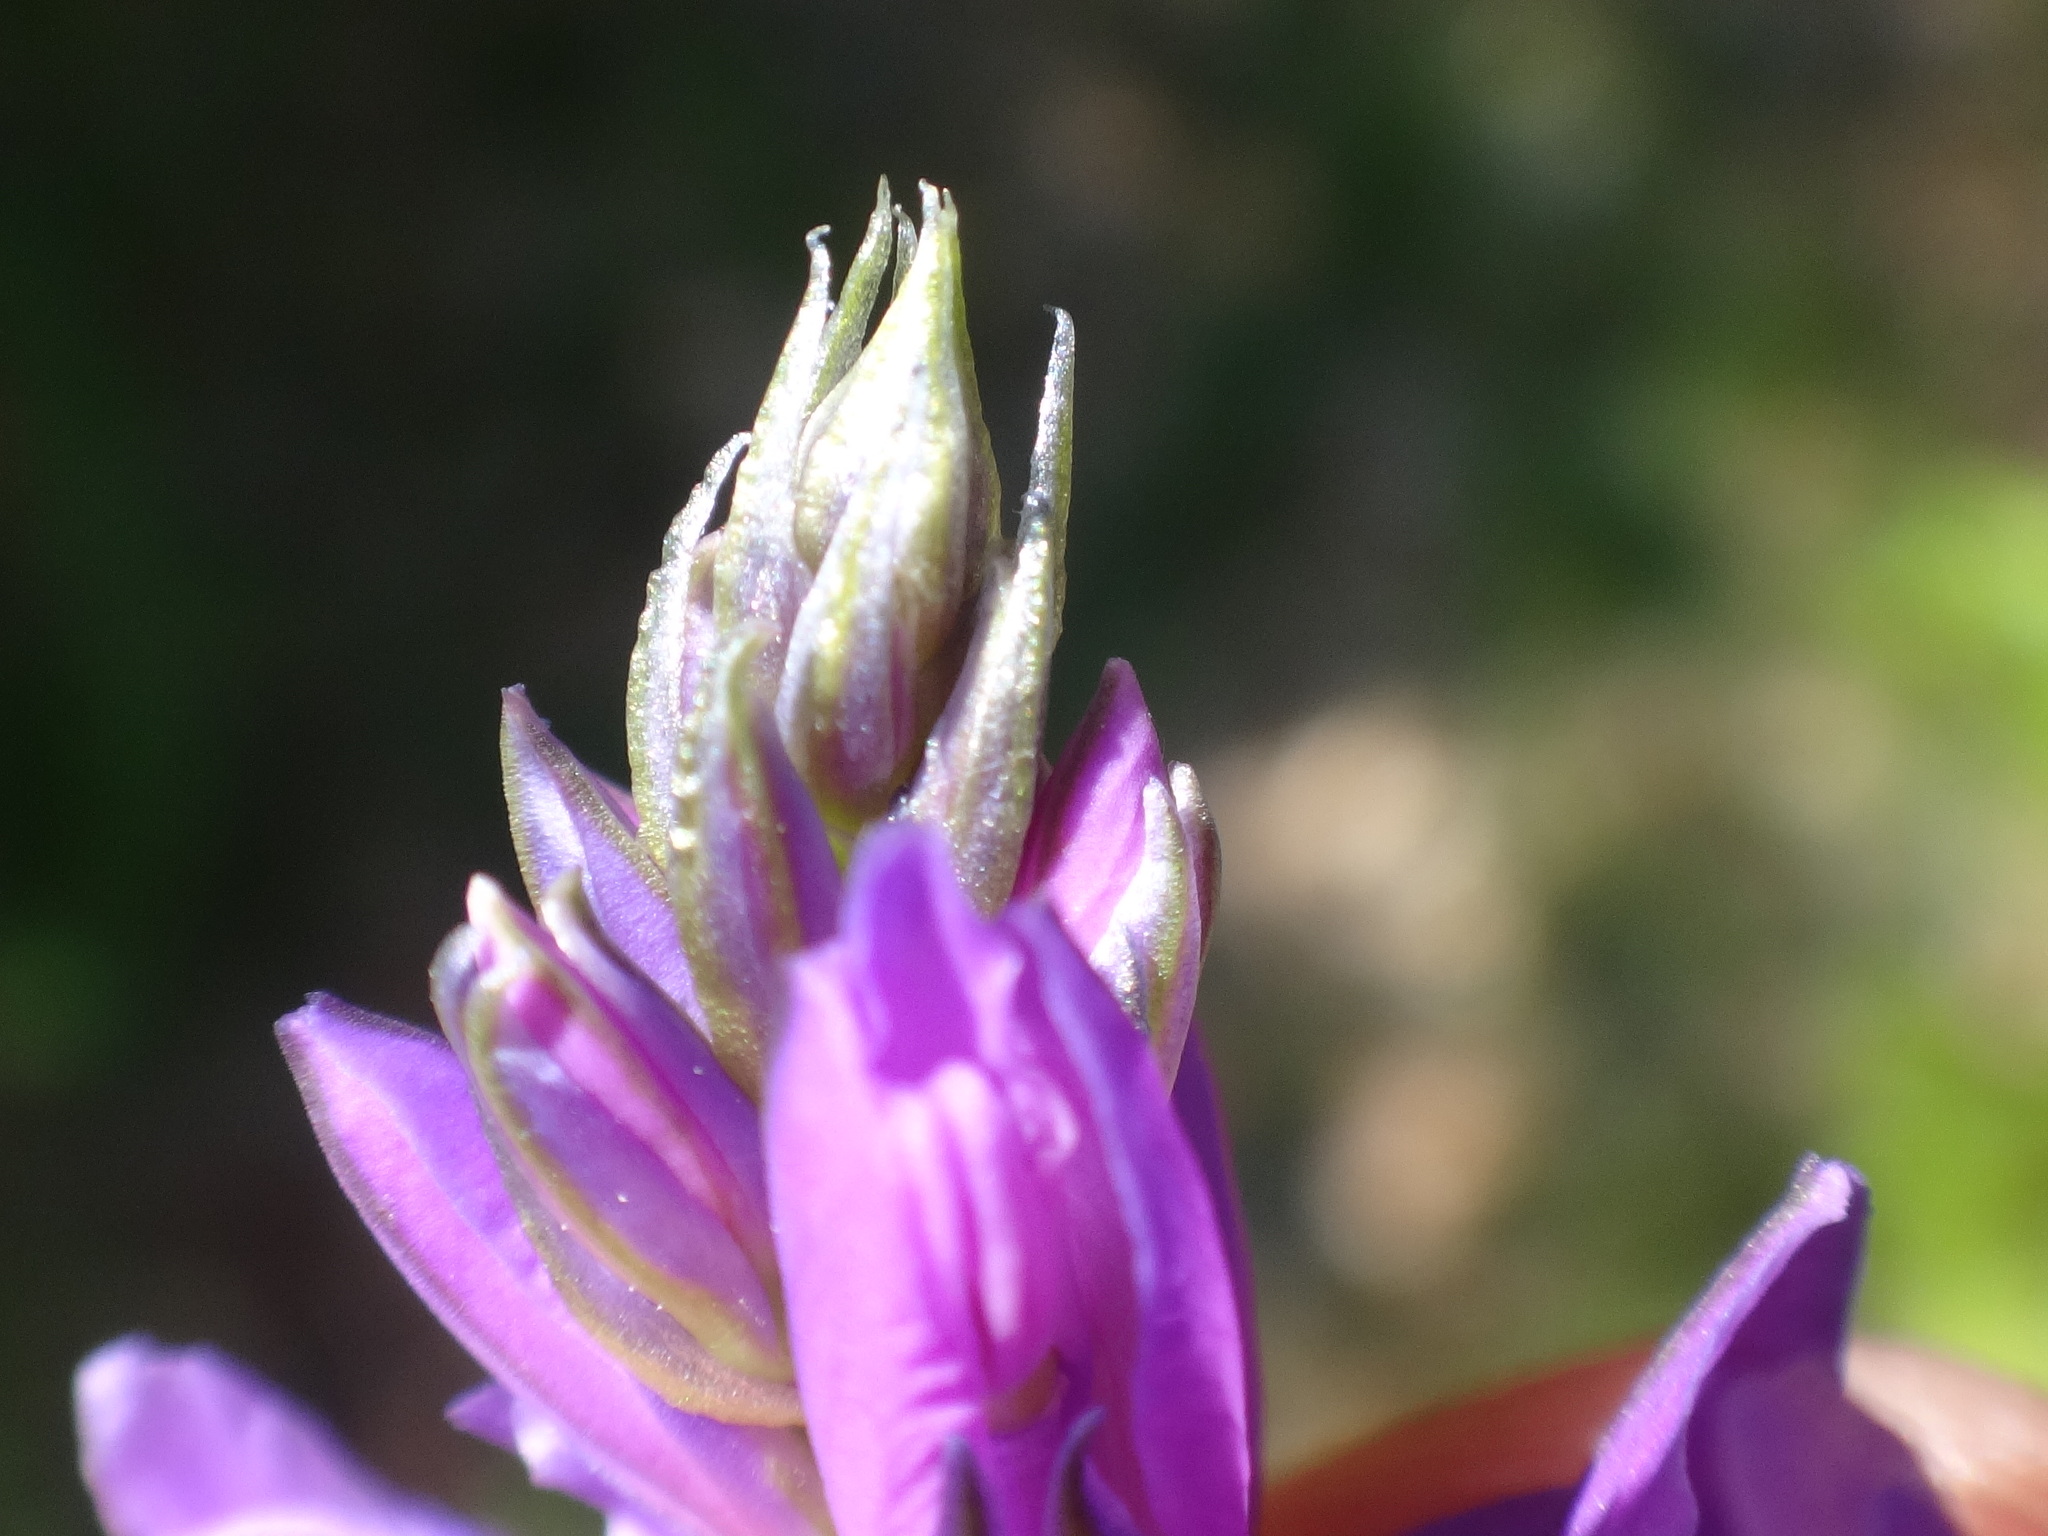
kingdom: Plantae
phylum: Tracheophyta
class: Magnoliopsida
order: Fabales
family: Polygalaceae
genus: Polygala
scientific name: Polygala nicaeensis
